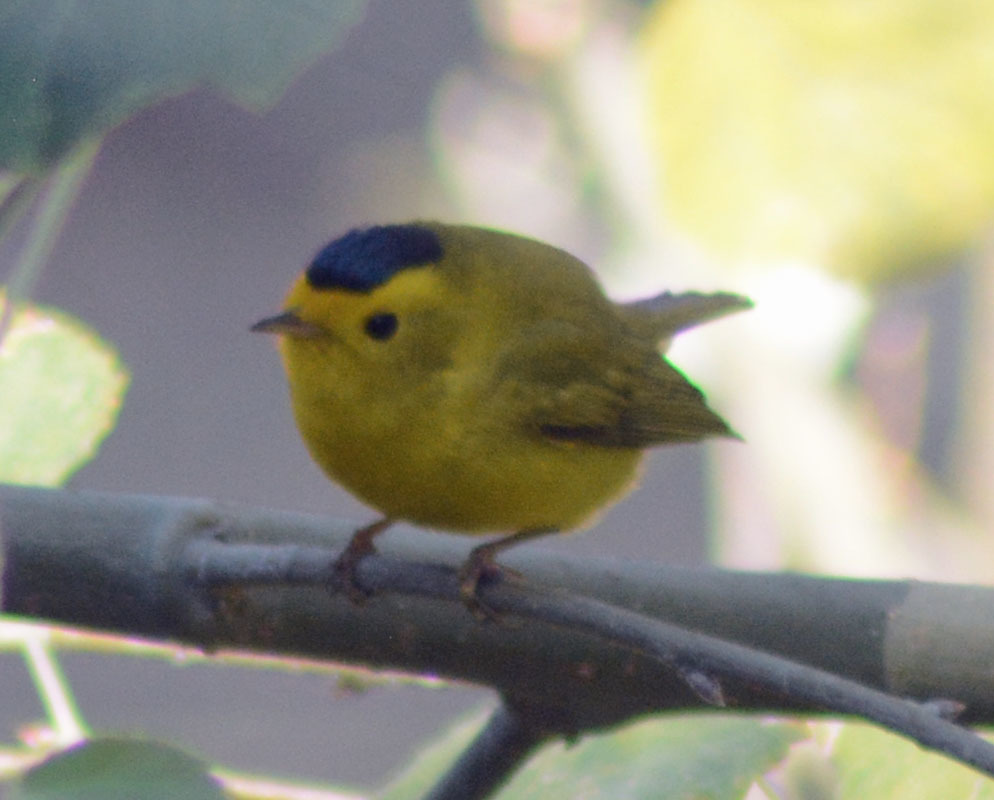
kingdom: Animalia
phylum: Chordata
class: Aves
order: Passeriformes
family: Parulidae
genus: Cardellina
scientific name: Cardellina pusilla
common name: Wilson's warbler
